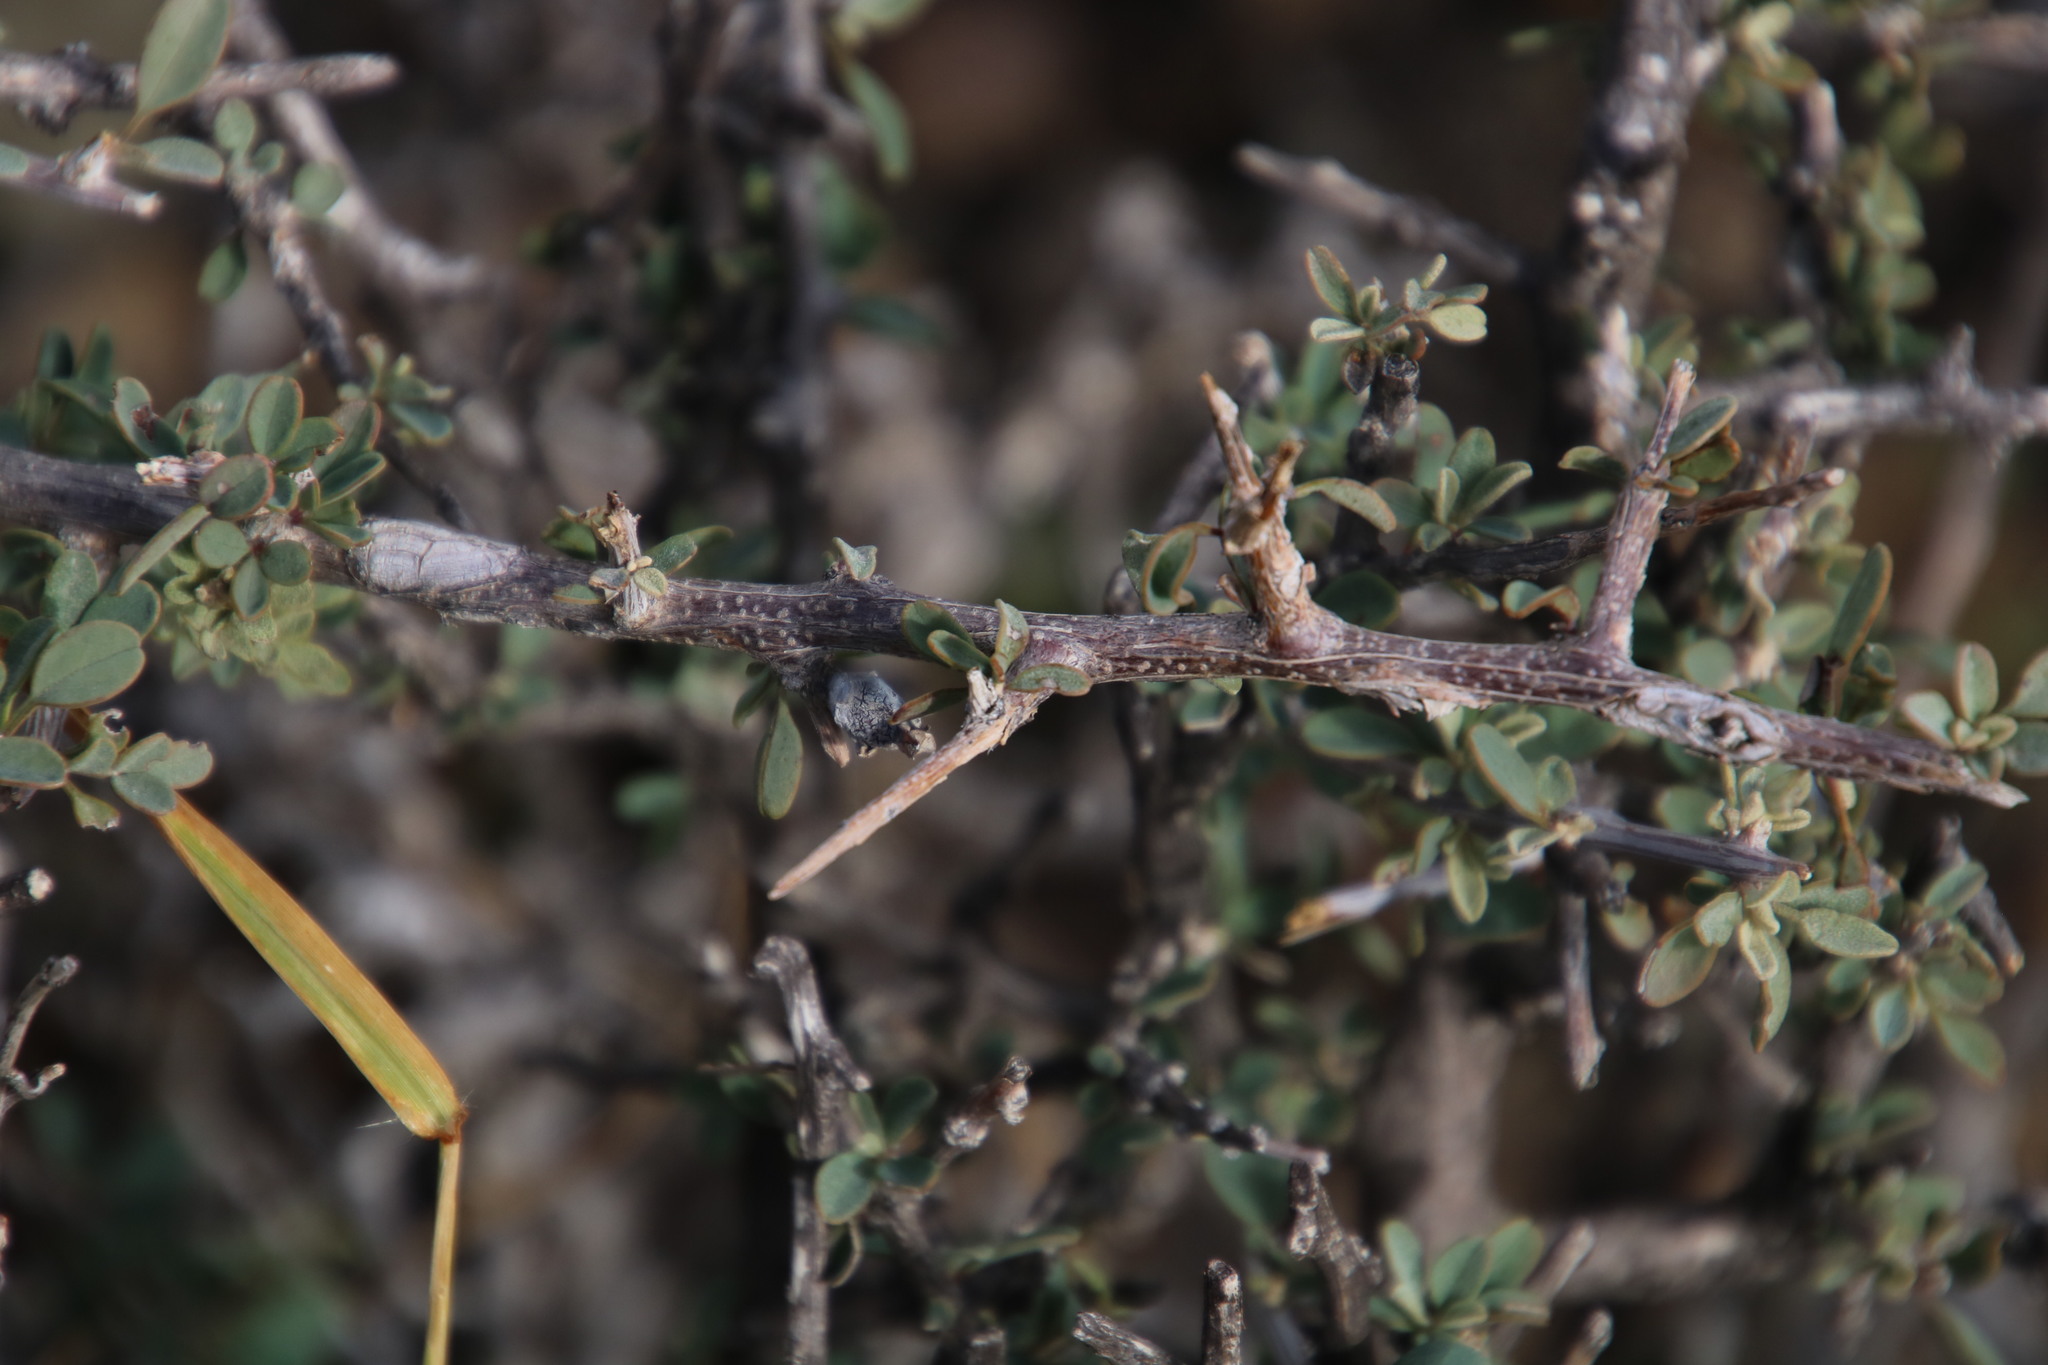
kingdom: Plantae
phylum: Tracheophyta
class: Magnoliopsida
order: Lamiales
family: Bignoniaceae
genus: Rhigozum
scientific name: Rhigozum obovatum
